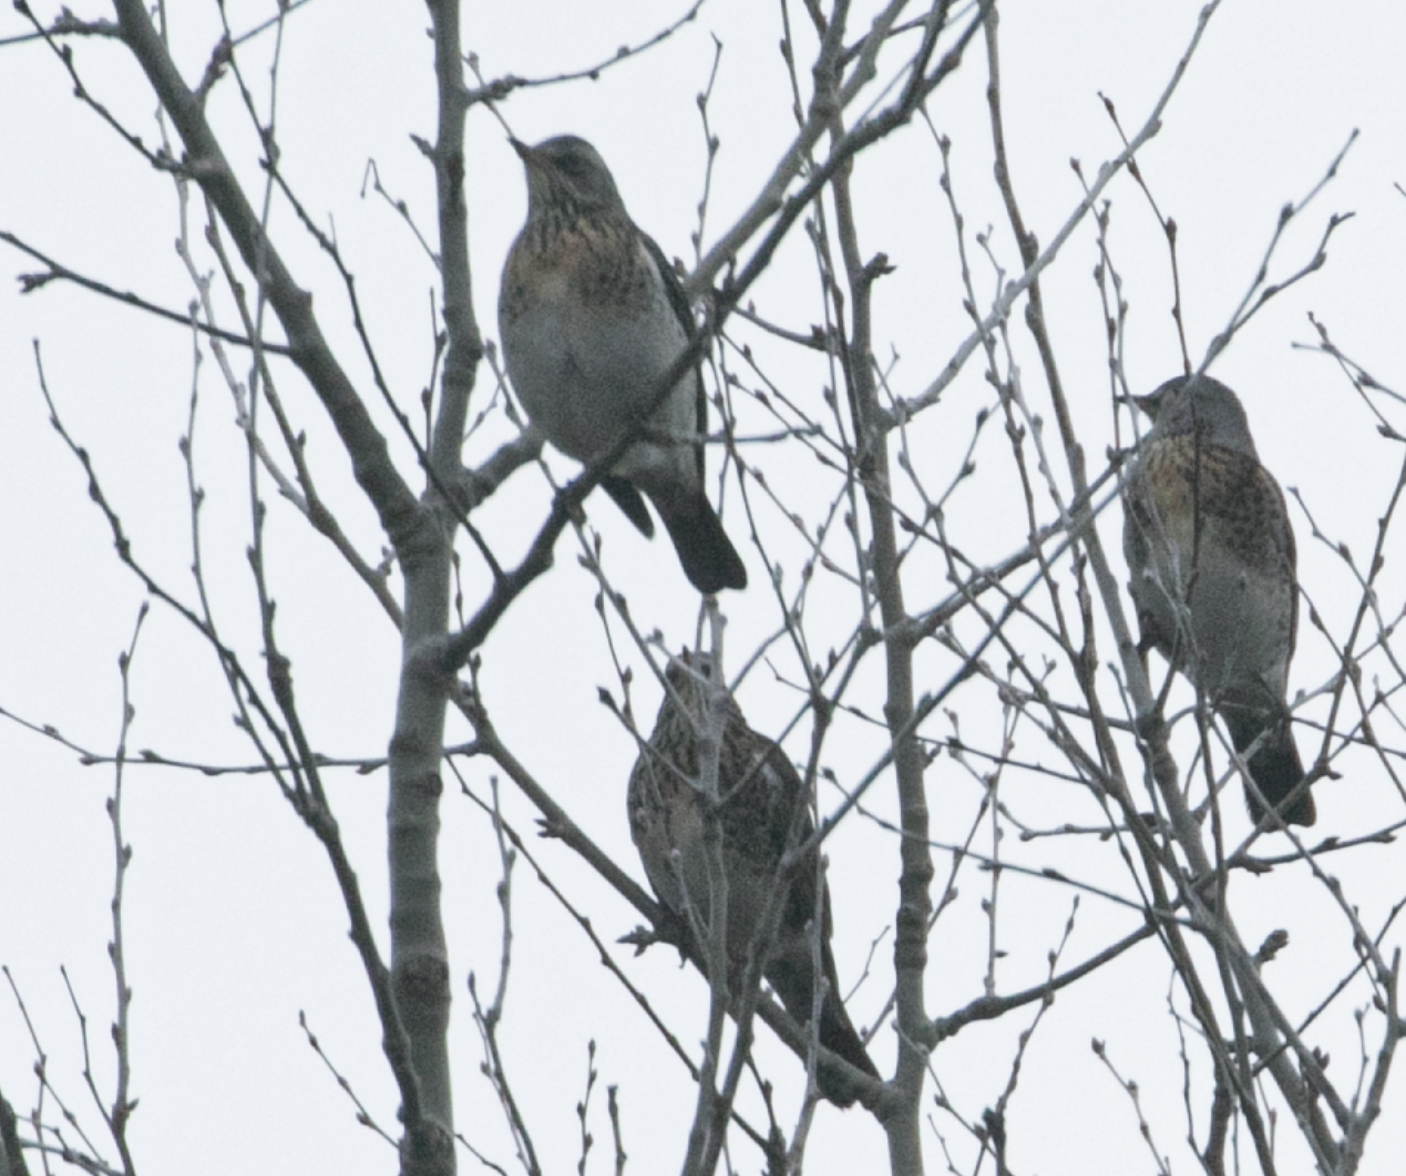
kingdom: Animalia
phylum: Chordata
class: Aves
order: Passeriformes
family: Turdidae
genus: Turdus
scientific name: Turdus pilaris
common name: Fieldfare
